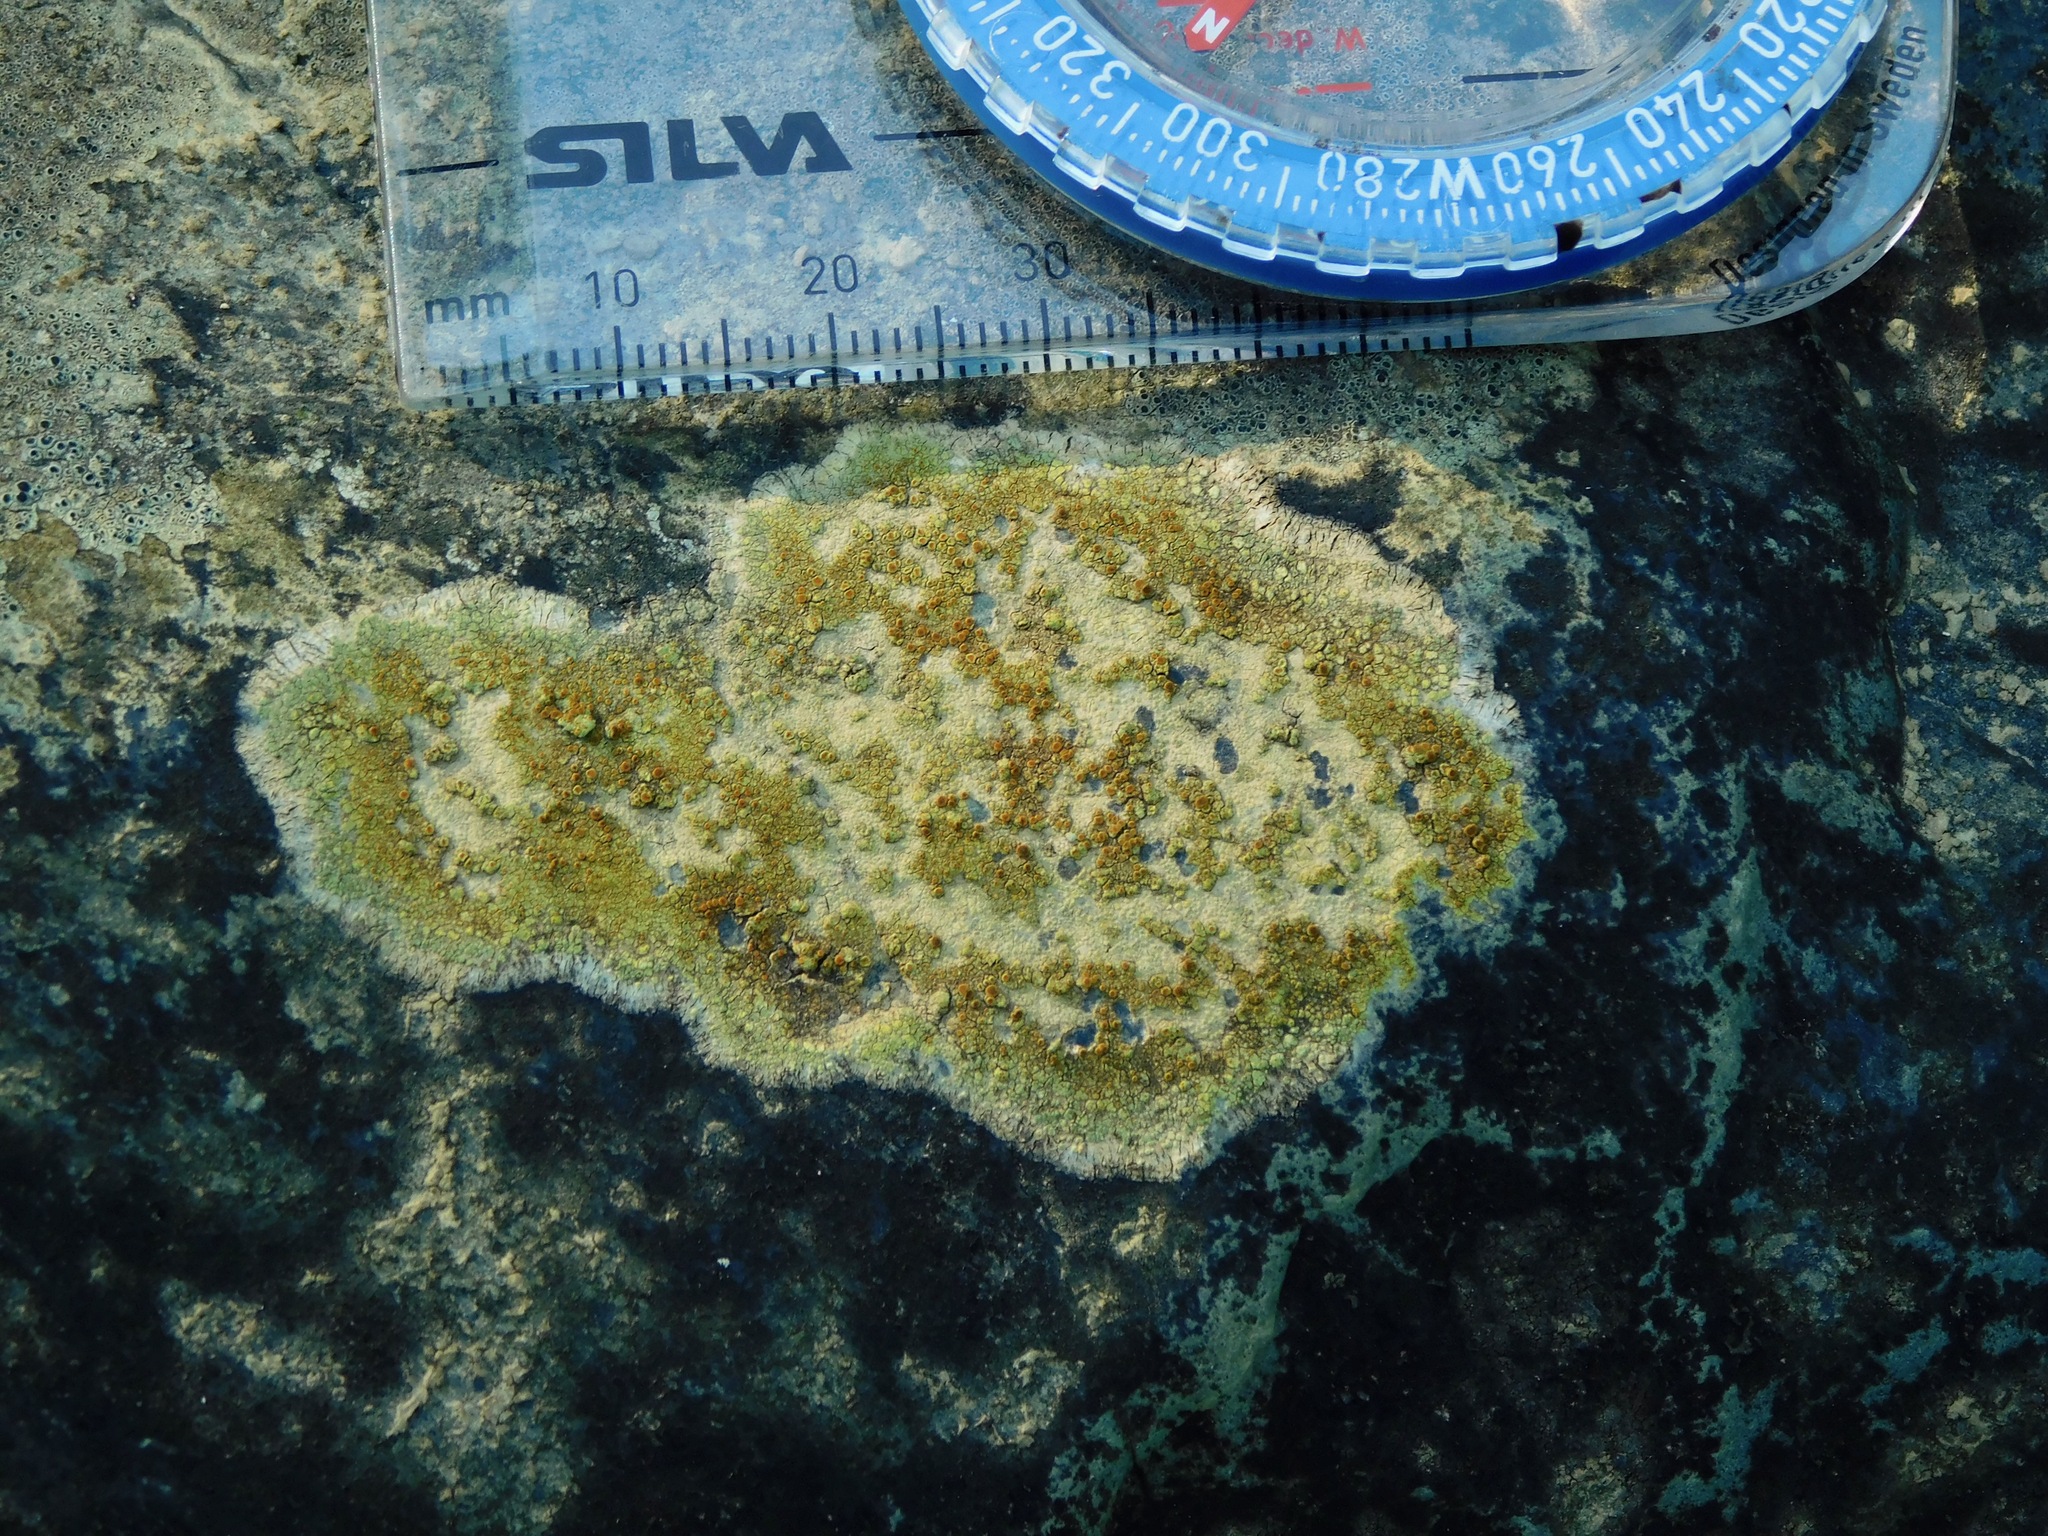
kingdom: Fungi
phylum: Ascomycota
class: Lecanoromycetes
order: Teloschistales
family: Teloschistaceae
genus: Gyalolechia
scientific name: Gyalolechia flavovirescens
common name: Sulphur firedot
